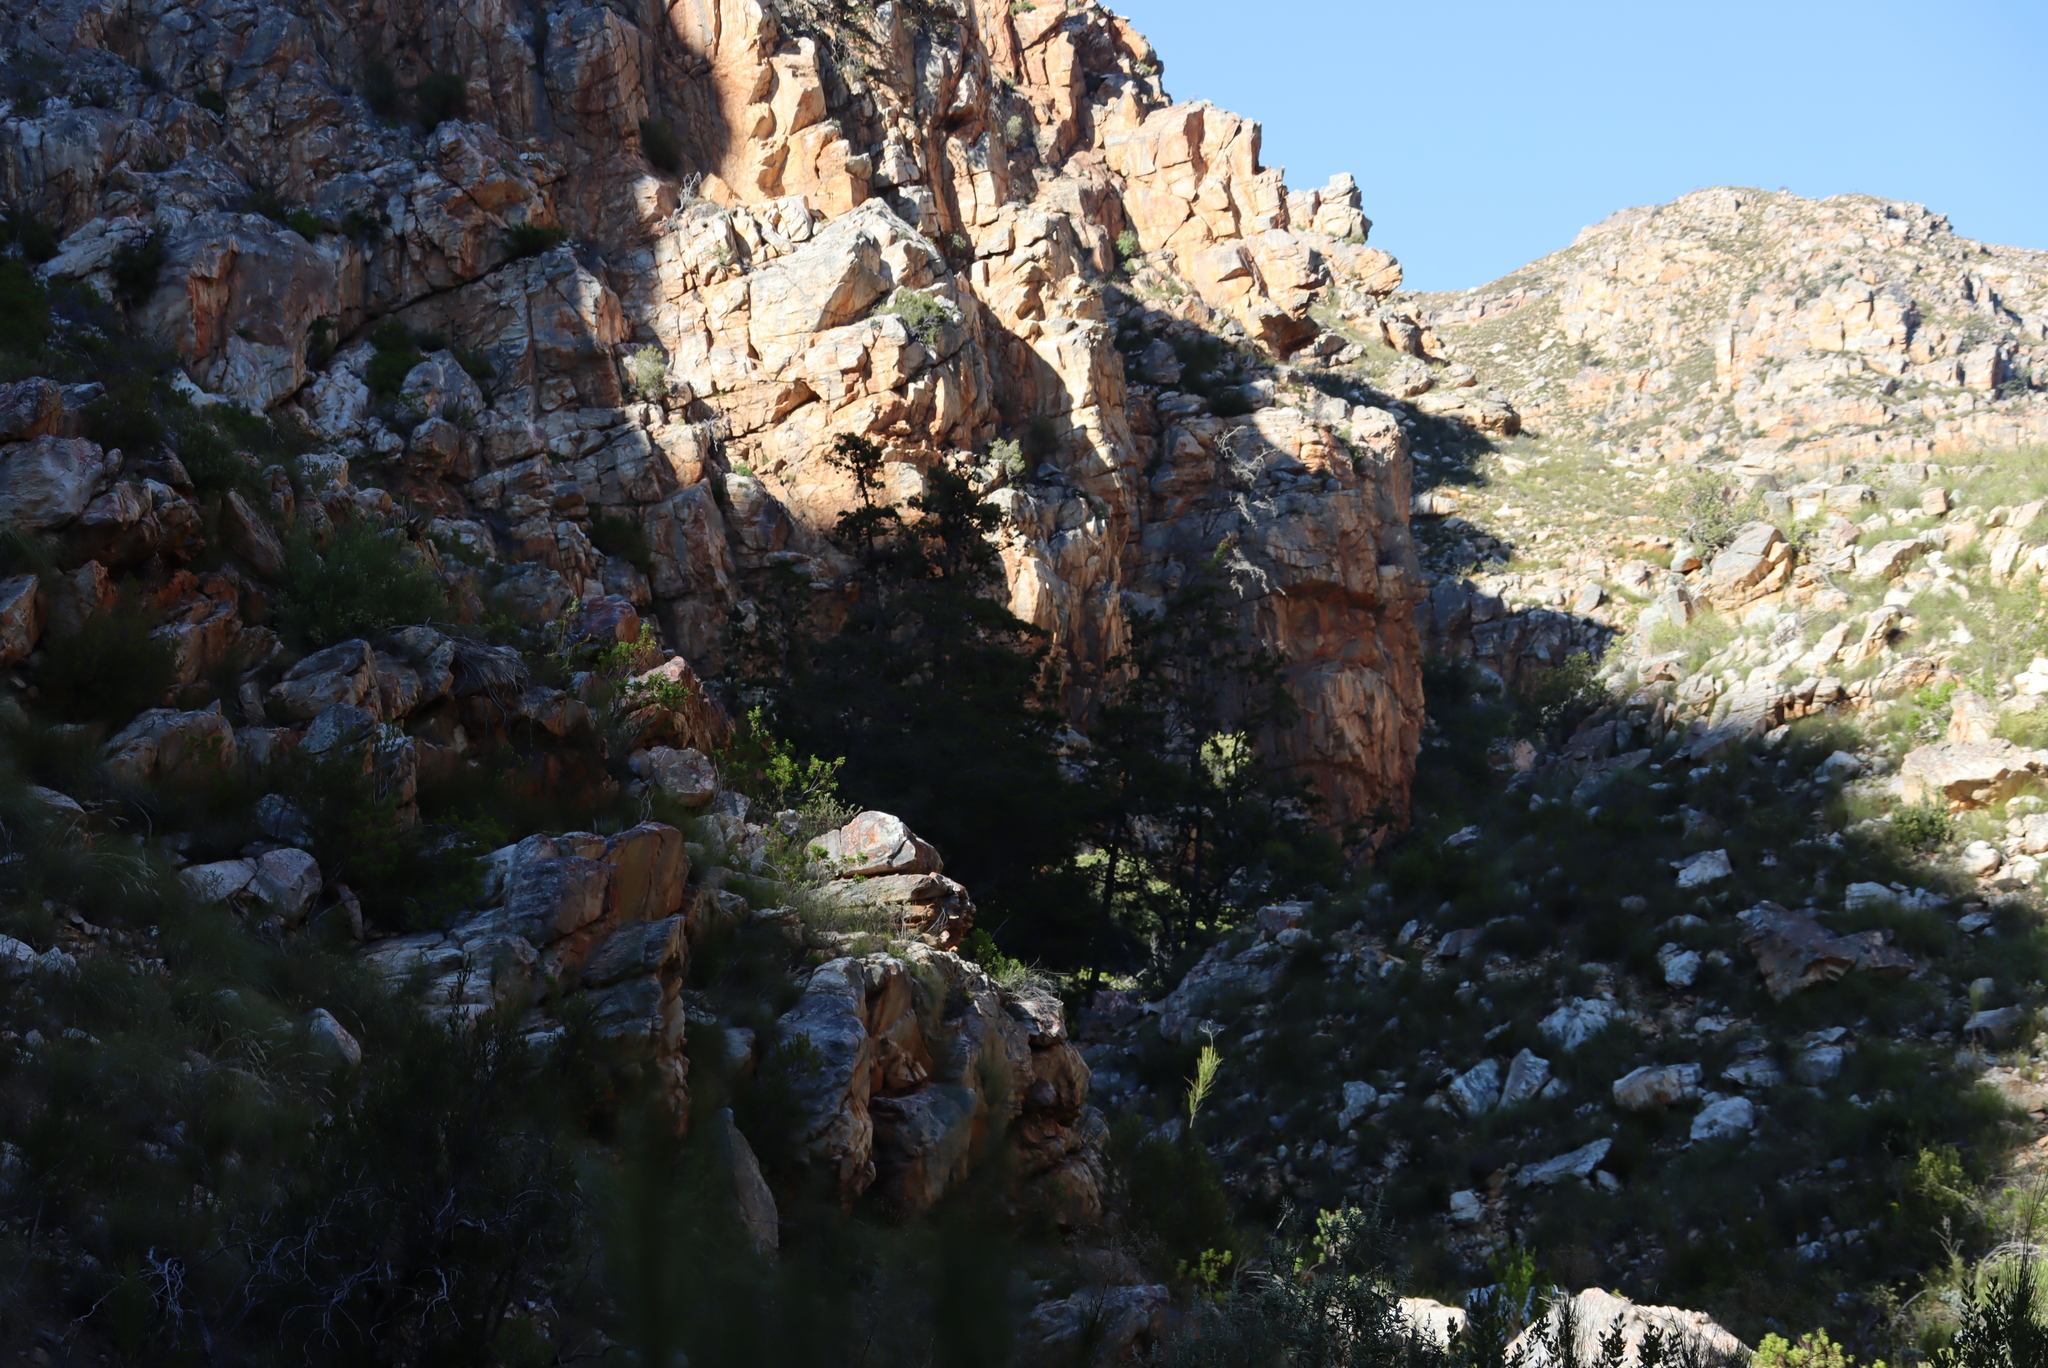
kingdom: Plantae
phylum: Tracheophyta
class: Pinopsida
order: Pinales
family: Cupressaceae
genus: Widdringtonia
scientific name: Widdringtonia schwarzii
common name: Baviaans cedar
